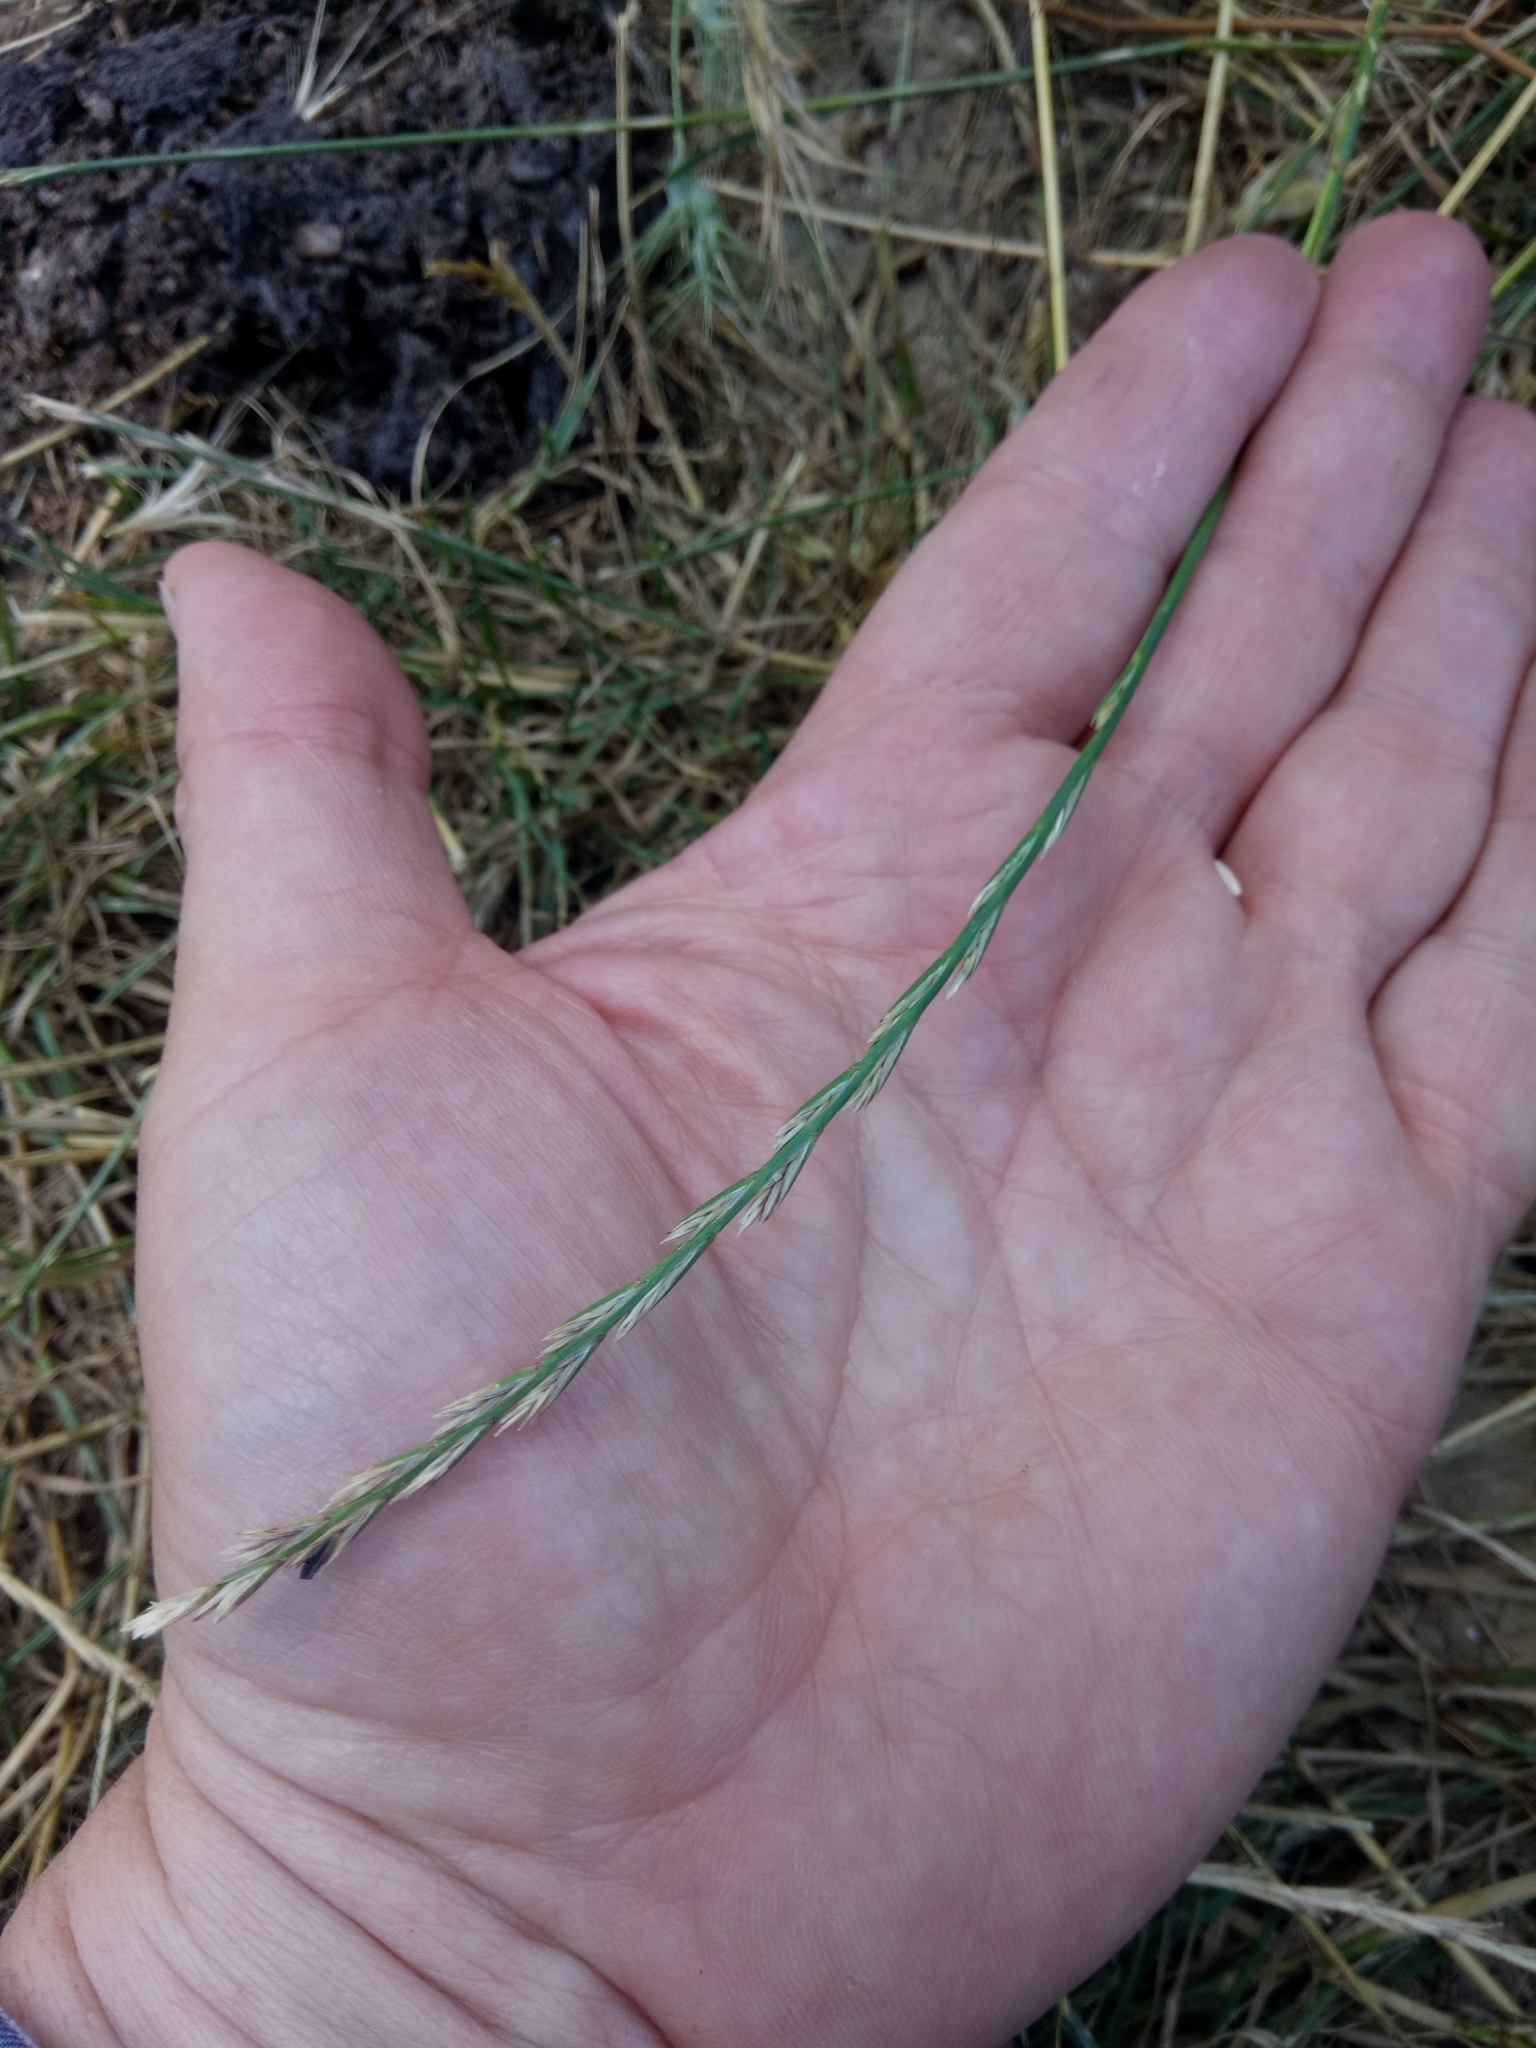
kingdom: Plantae
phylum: Tracheophyta
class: Liliopsida
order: Poales
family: Poaceae
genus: Lolium
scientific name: Lolium perenne
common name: Perennial ryegrass
